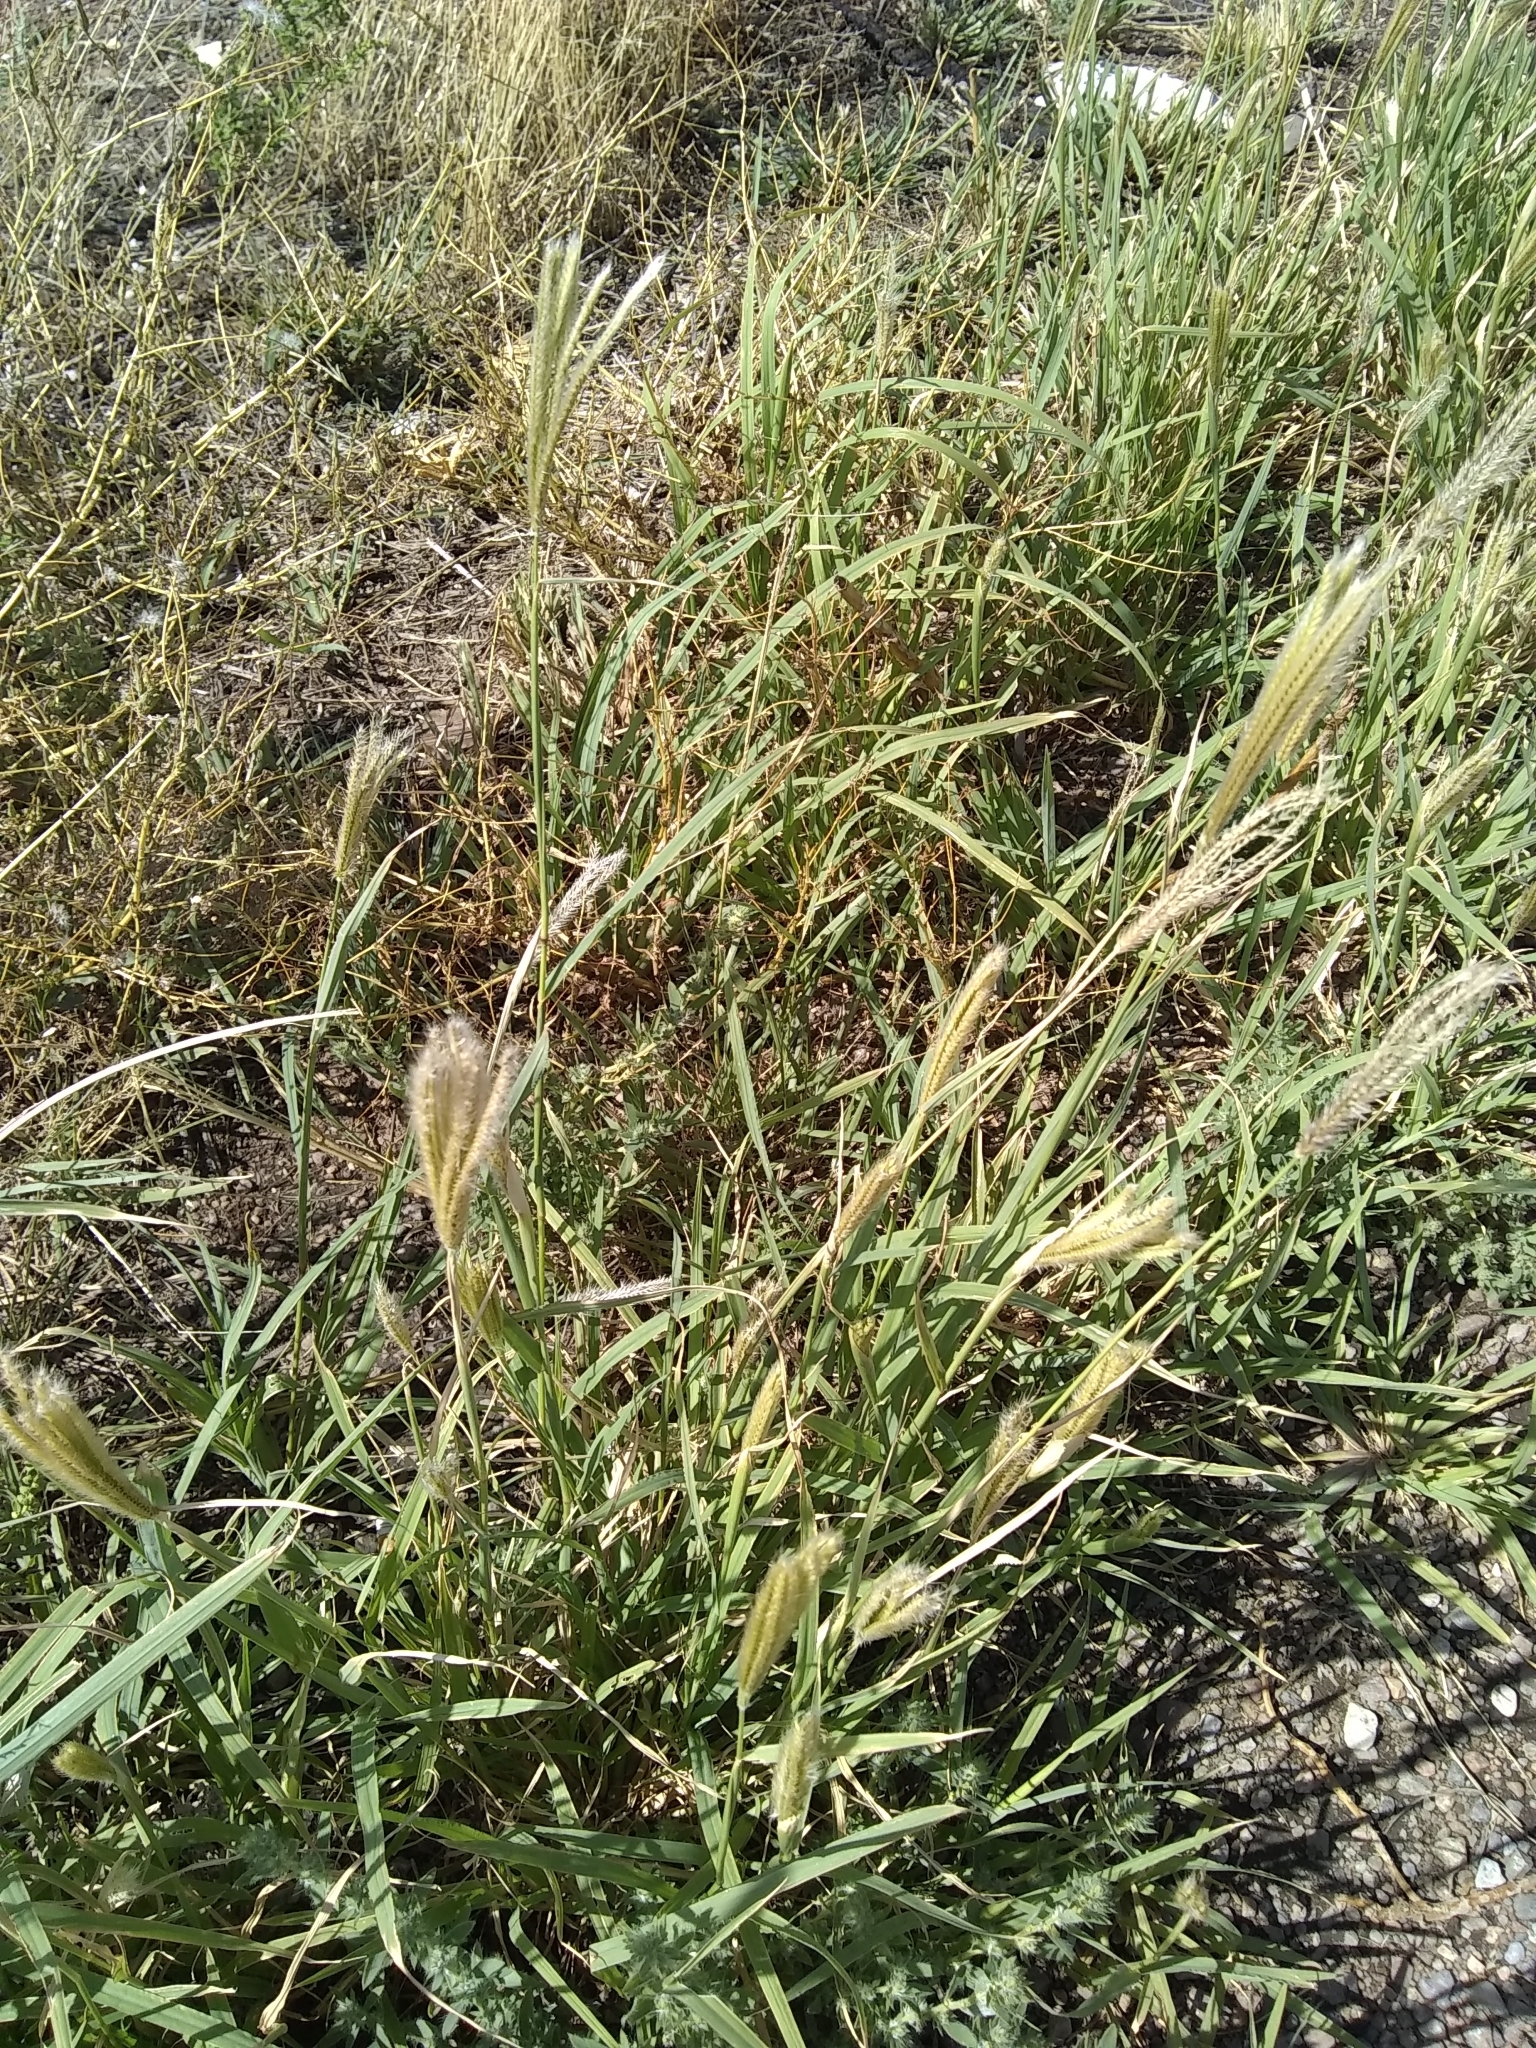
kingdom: Plantae
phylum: Tracheophyta
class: Liliopsida
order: Poales
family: Poaceae
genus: Chloris
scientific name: Chloris virgata
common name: Feathery rhodes-grass
